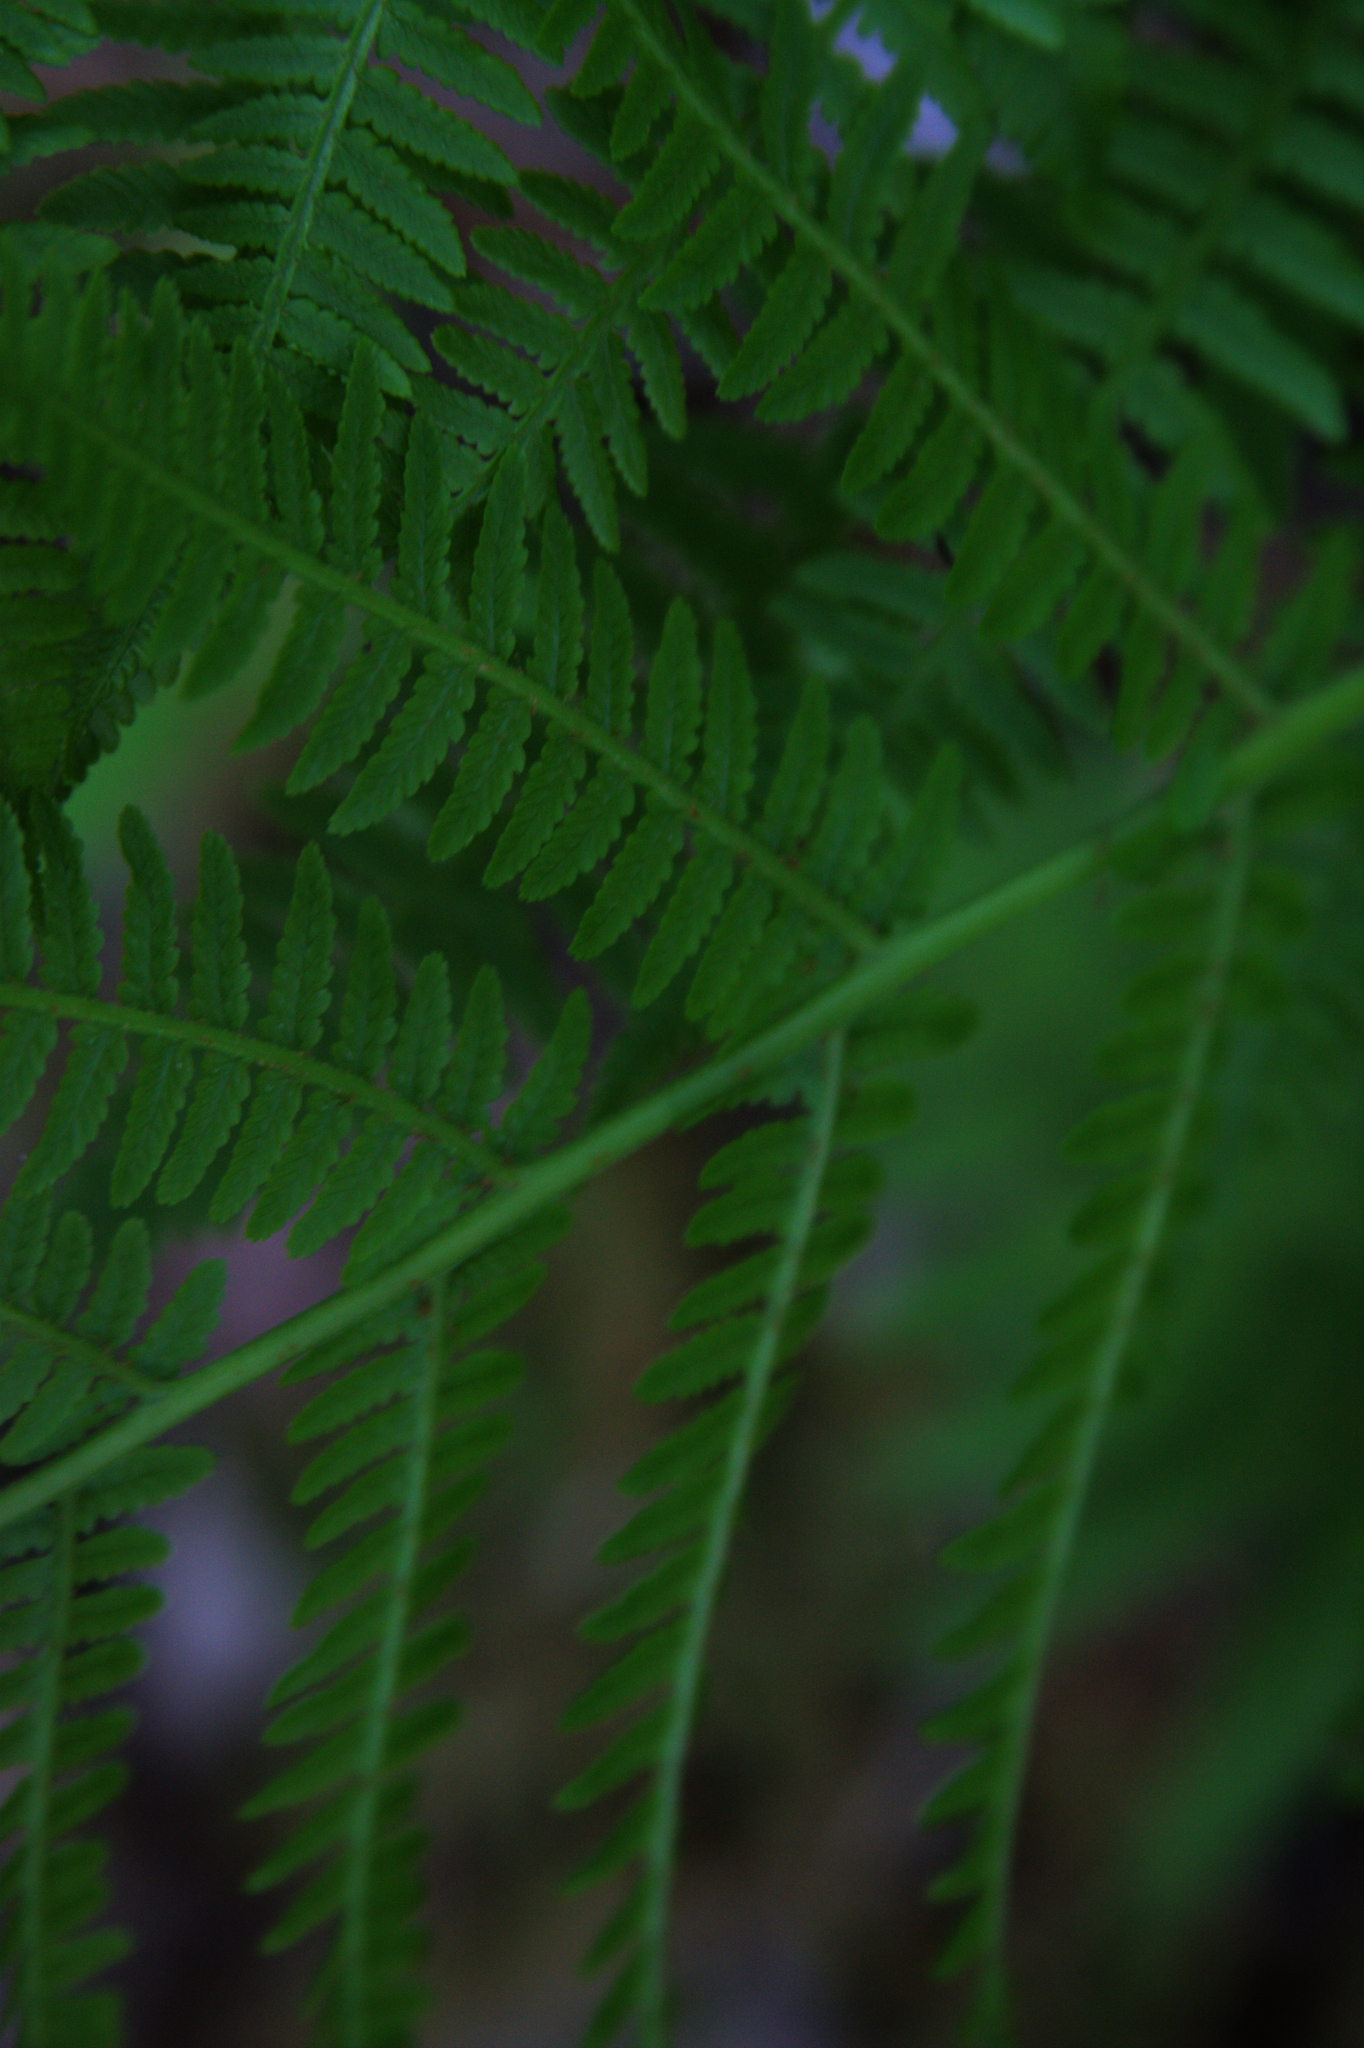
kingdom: Plantae
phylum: Tracheophyta
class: Polypodiopsida
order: Polypodiales
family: Athyriaceae
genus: Athyrium
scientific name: Athyrium angustum
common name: Northern lady fern
